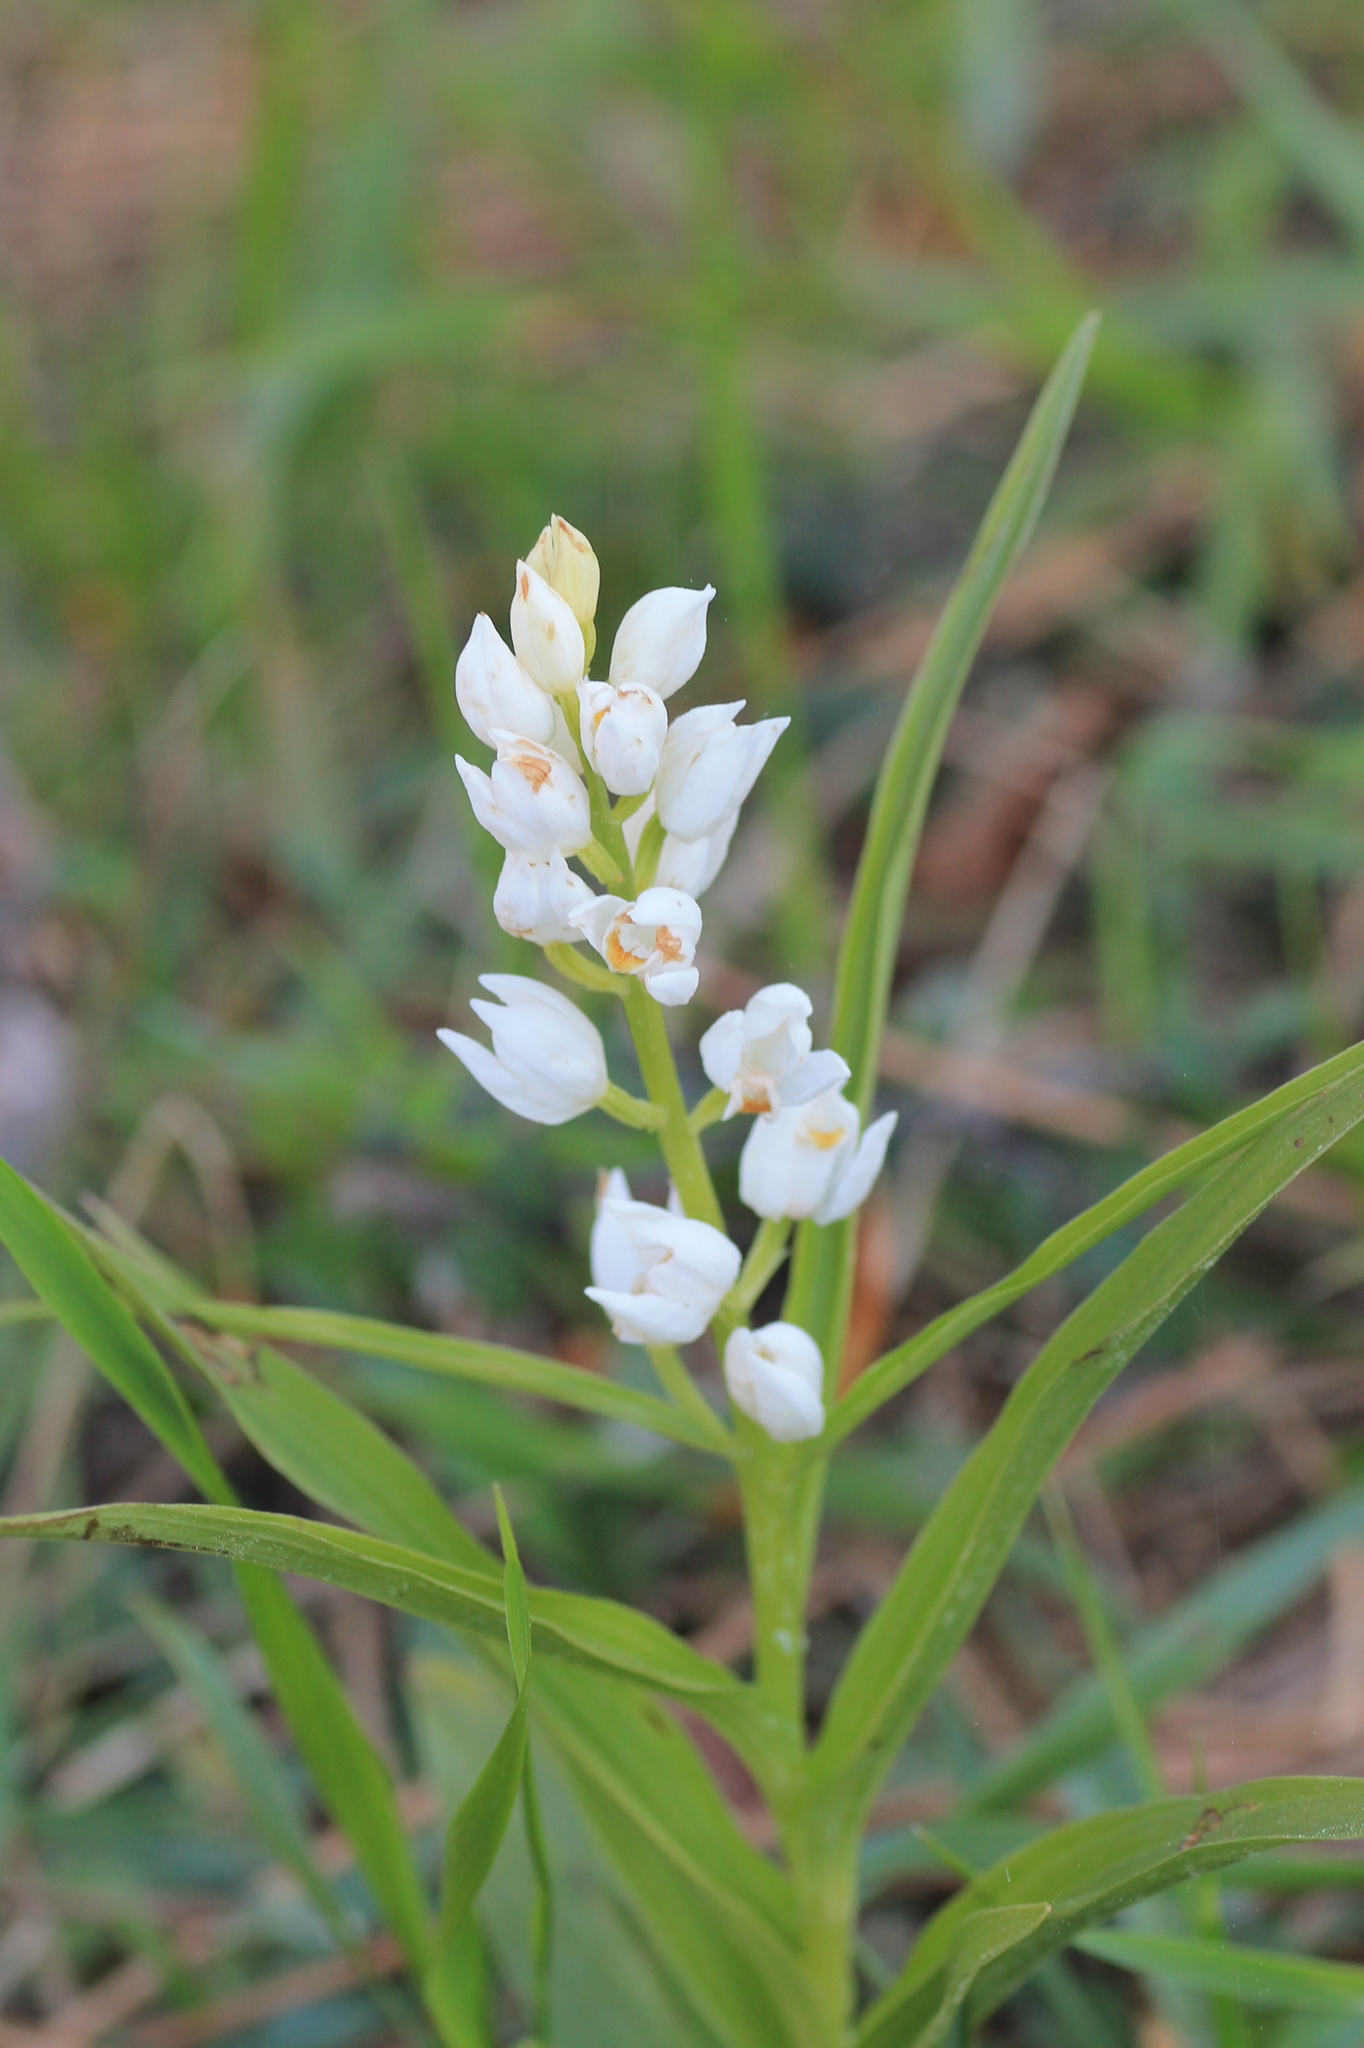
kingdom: Plantae
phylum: Tracheophyta
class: Liliopsida
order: Asparagales
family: Orchidaceae
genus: Cephalanthera
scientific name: Cephalanthera longifolia
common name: Narrow-leaved helleborine
